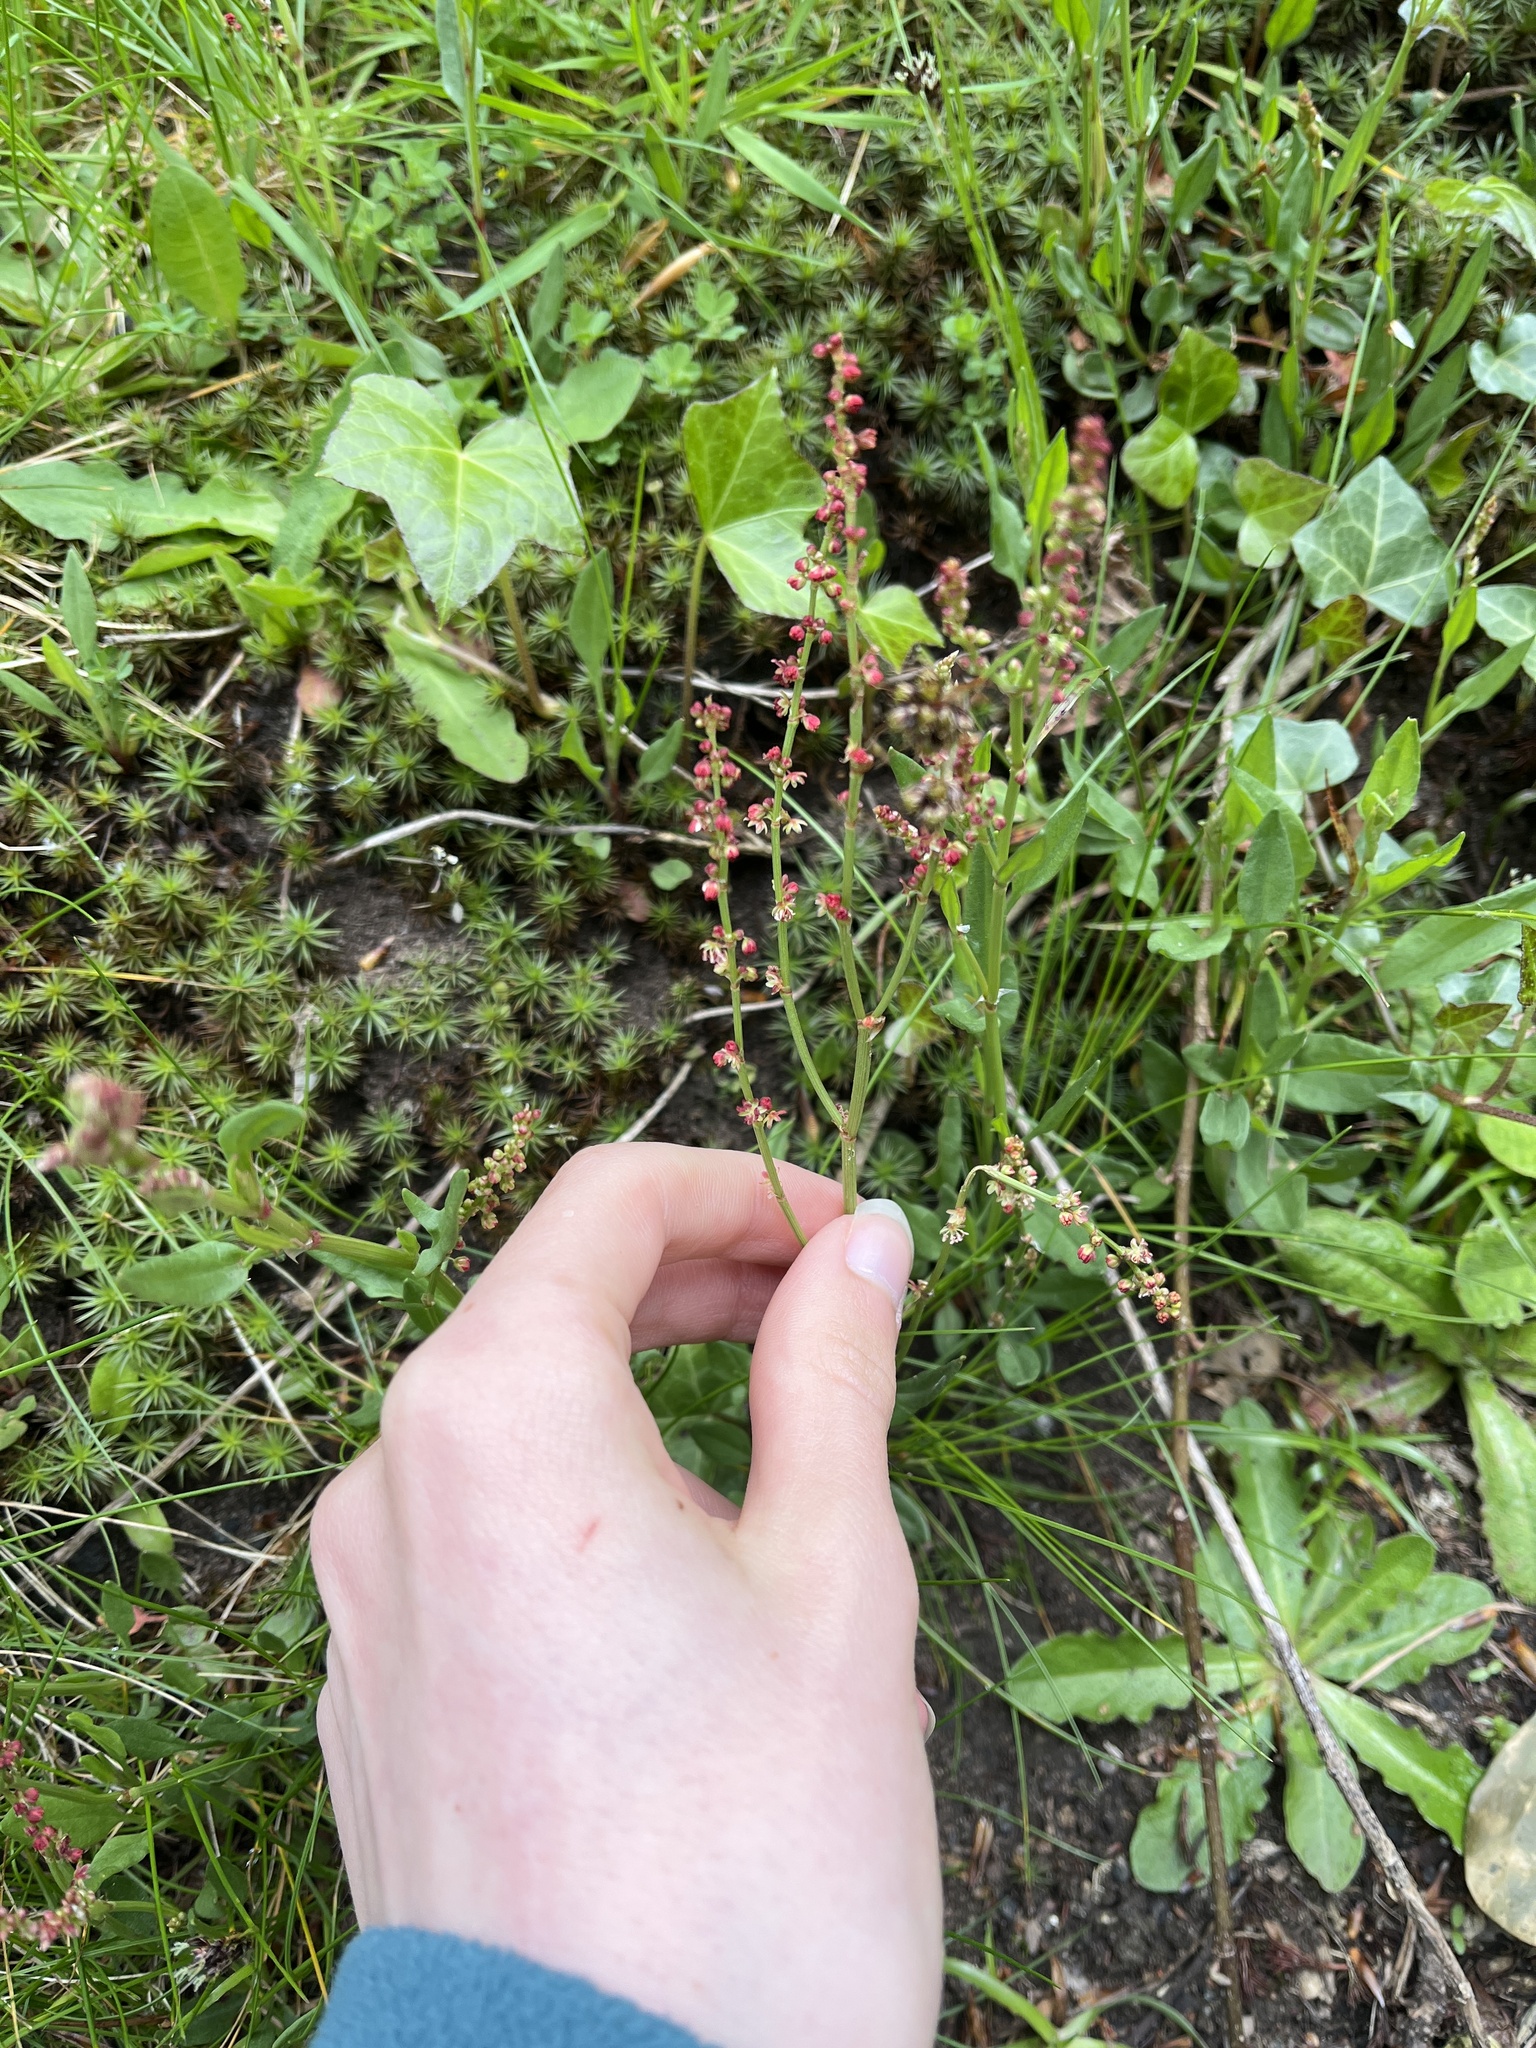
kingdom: Plantae
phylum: Tracheophyta
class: Magnoliopsida
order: Caryophyllales
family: Polygonaceae
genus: Rumex
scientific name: Rumex acetosella
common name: Common sheep sorrel
